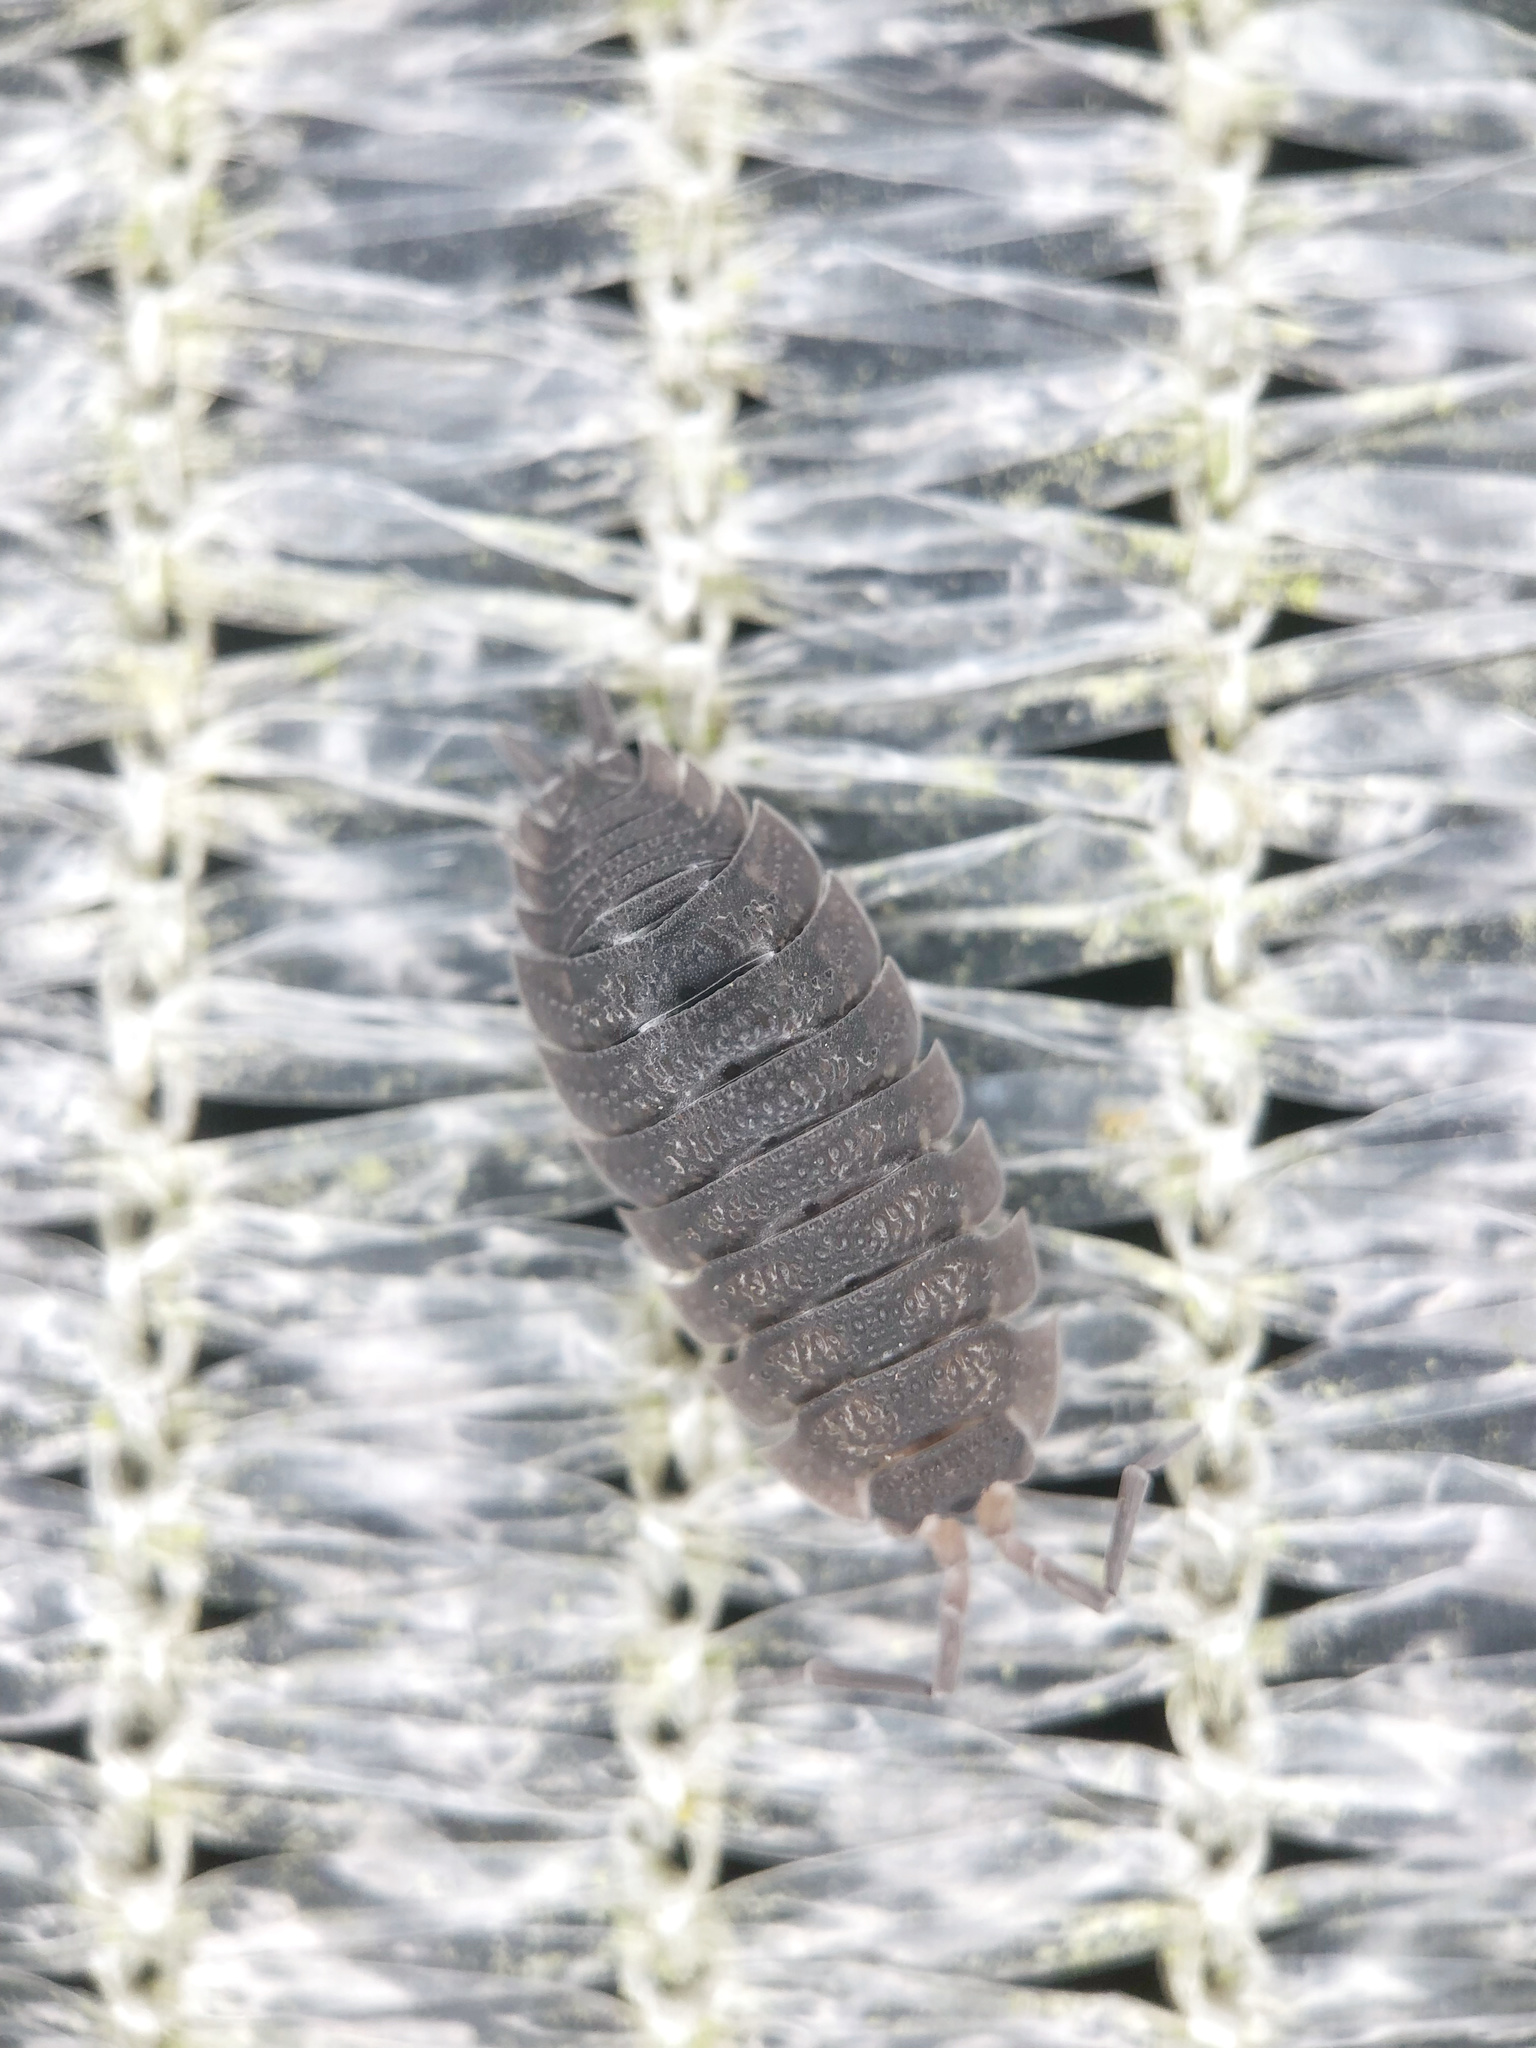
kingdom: Animalia
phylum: Arthropoda
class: Malacostraca
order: Isopoda
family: Porcellionidae
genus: Porcellio
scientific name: Porcellio scaber
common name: Common rough woodlouse
